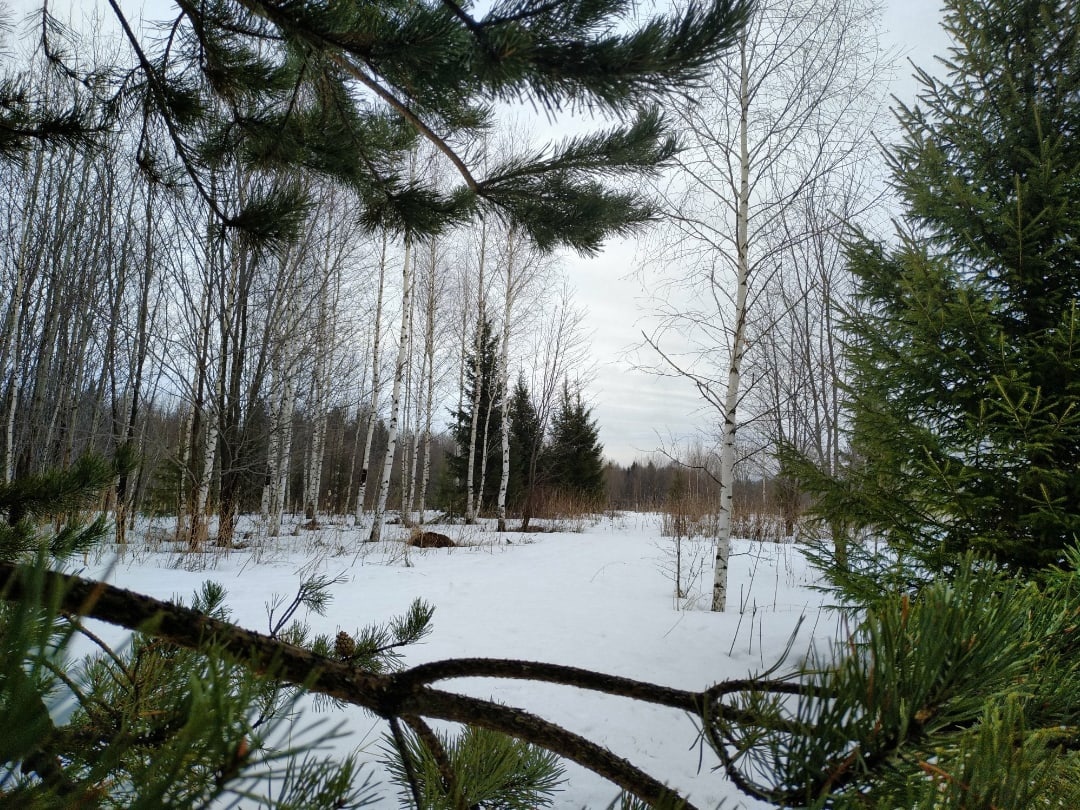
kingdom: Plantae
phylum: Tracheophyta
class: Magnoliopsida
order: Fagales
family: Betulaceae
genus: Betula
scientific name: Betula pendula
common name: Silver birch
